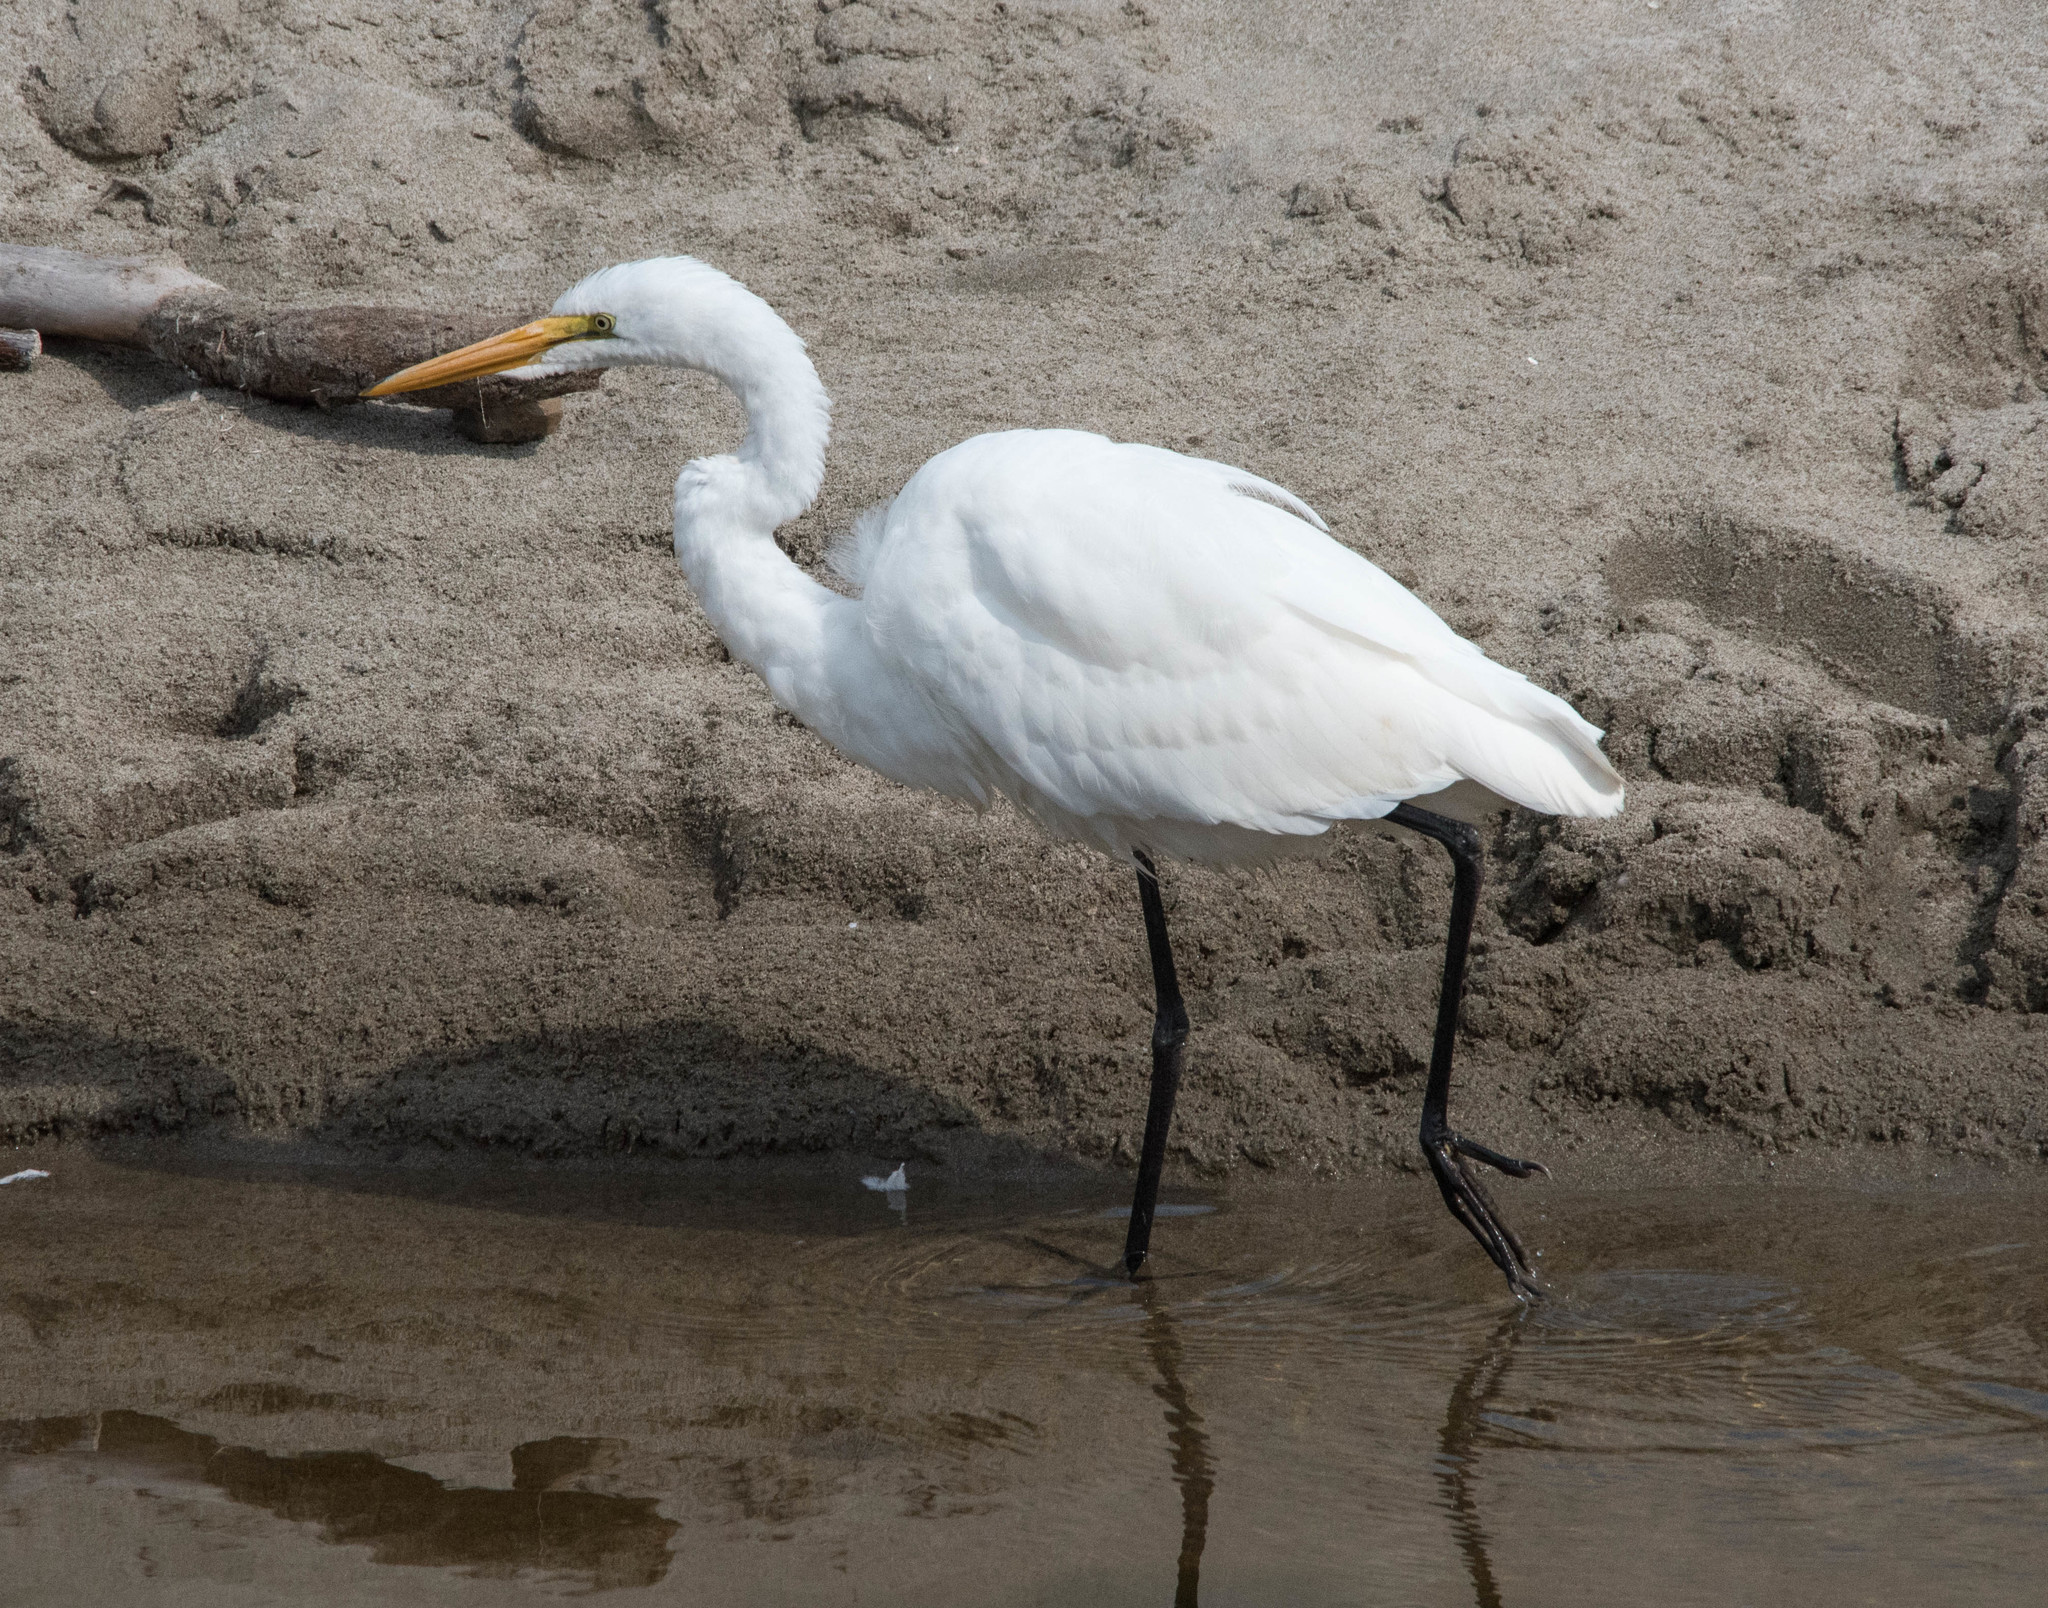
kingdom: Animalia
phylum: Chordata
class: Aves
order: Pelecaniformes
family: Ardeidae
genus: Ardea
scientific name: Ardea alba
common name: Great egret
